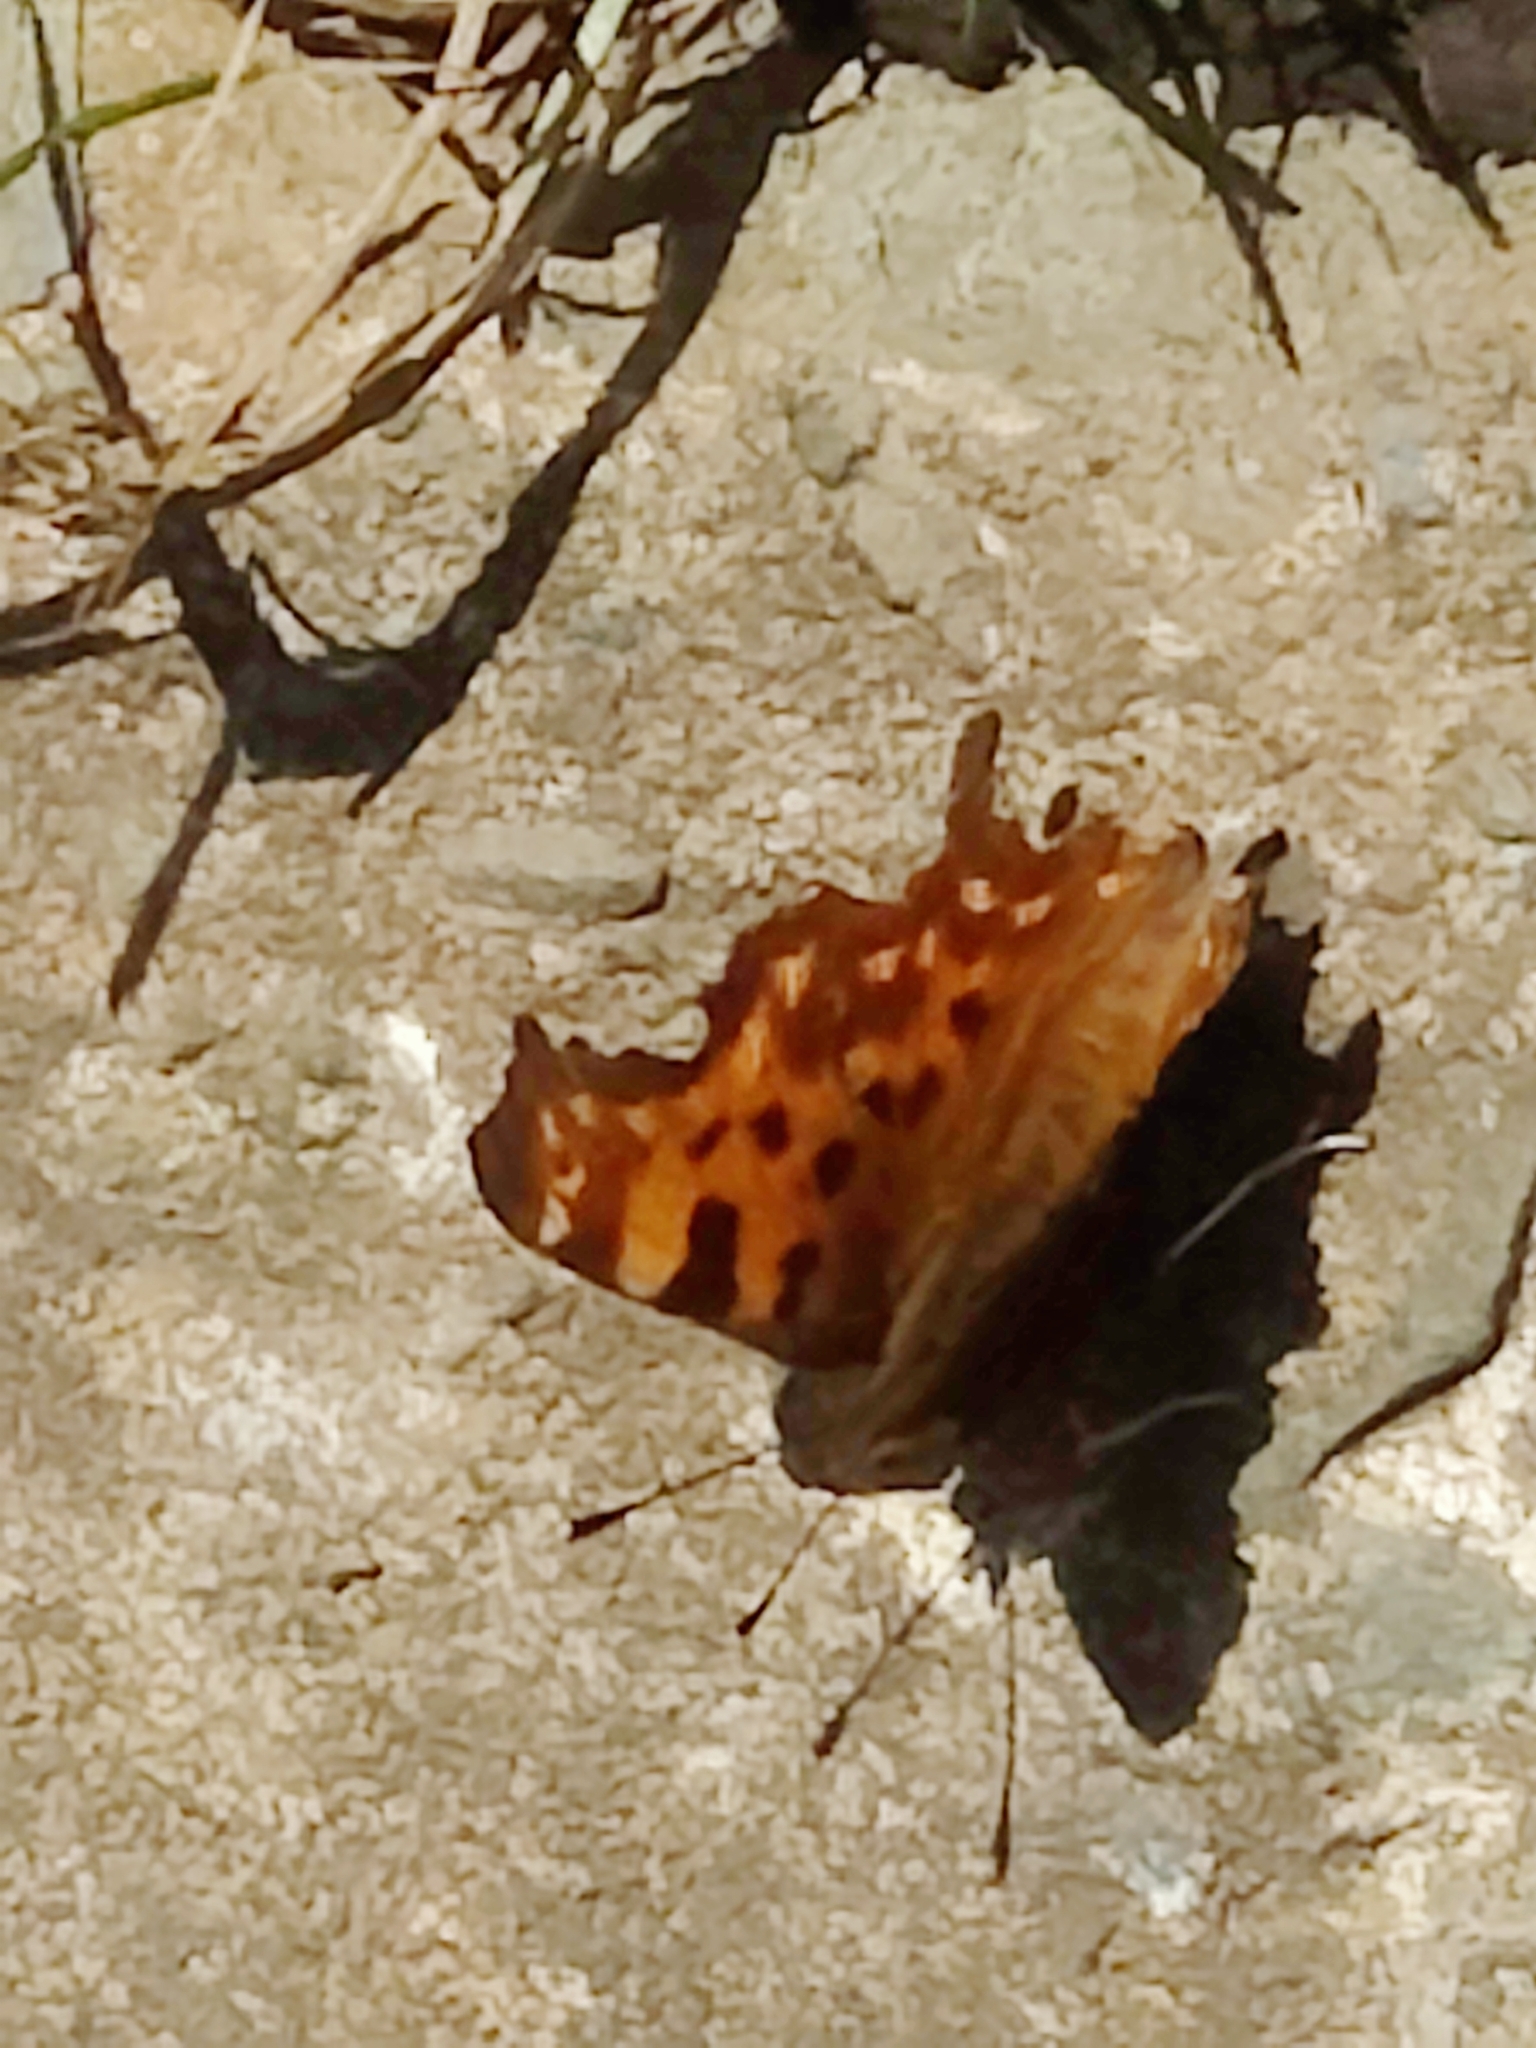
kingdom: Animalia
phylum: Arthropoda
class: Insecta
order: Lepidoptera
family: Nymphalidae
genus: Polygonia
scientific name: Polygonia c-album
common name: Comma
